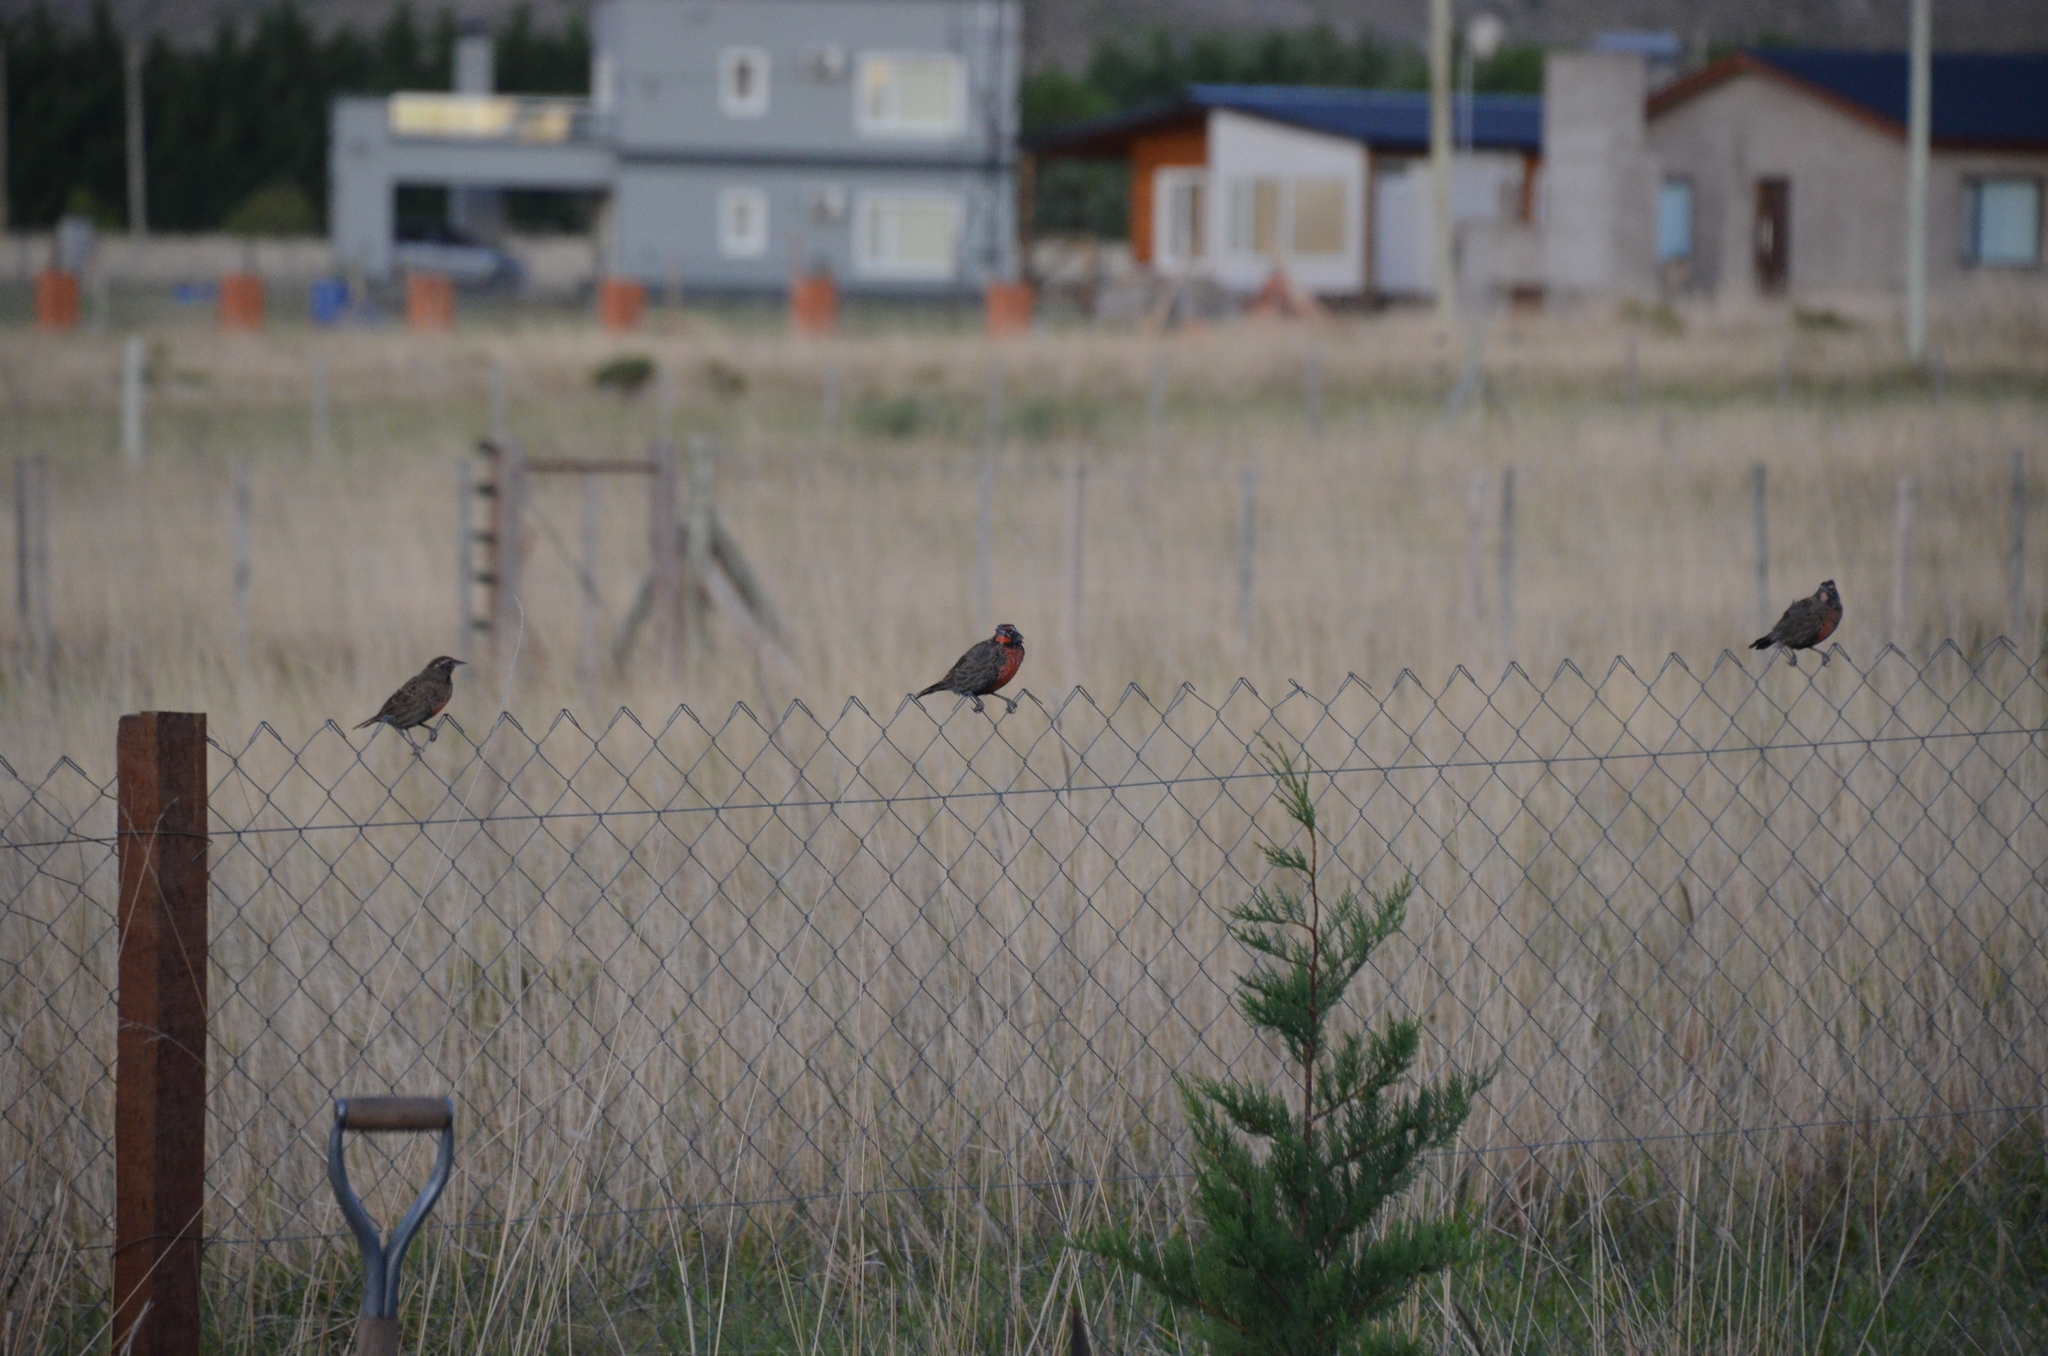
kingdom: Animalia
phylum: Chordata
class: Aves
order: Passeriformes
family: Icteridae
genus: Sturnella
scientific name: Sturnella loyca
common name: Long-tailed meadowlark
